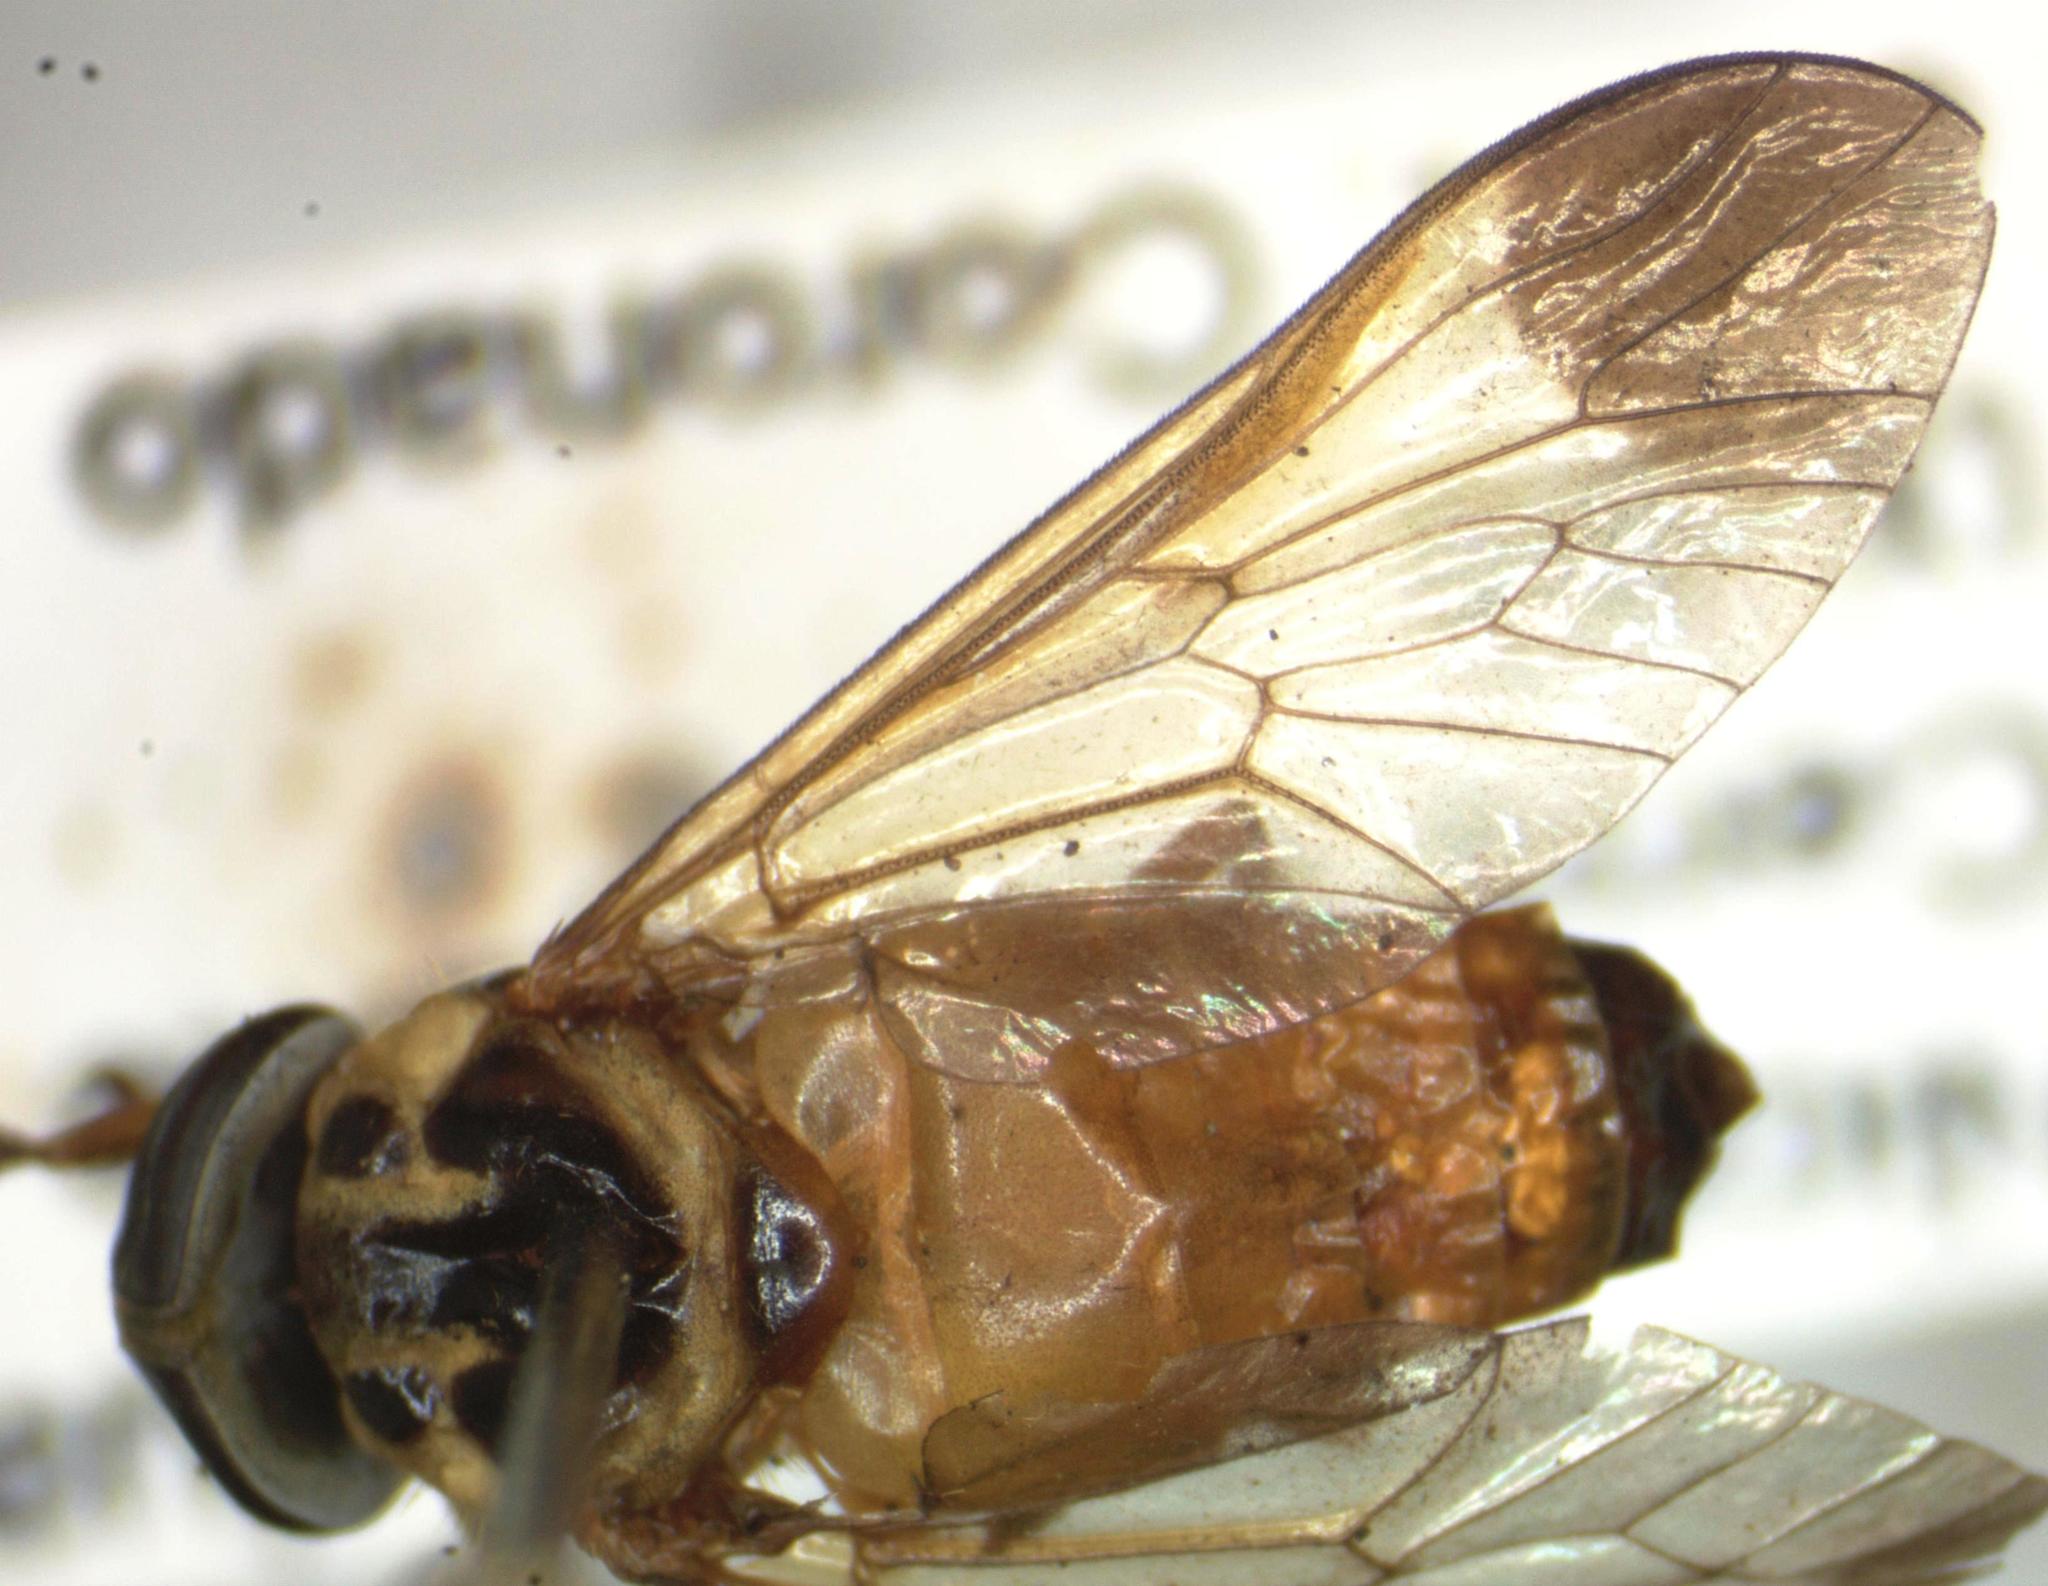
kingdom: Animalia
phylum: Arthropoda
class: Insecta
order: Diptera
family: Tabanidae
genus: Diachlorus
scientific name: Diachlorus jobbinsi
